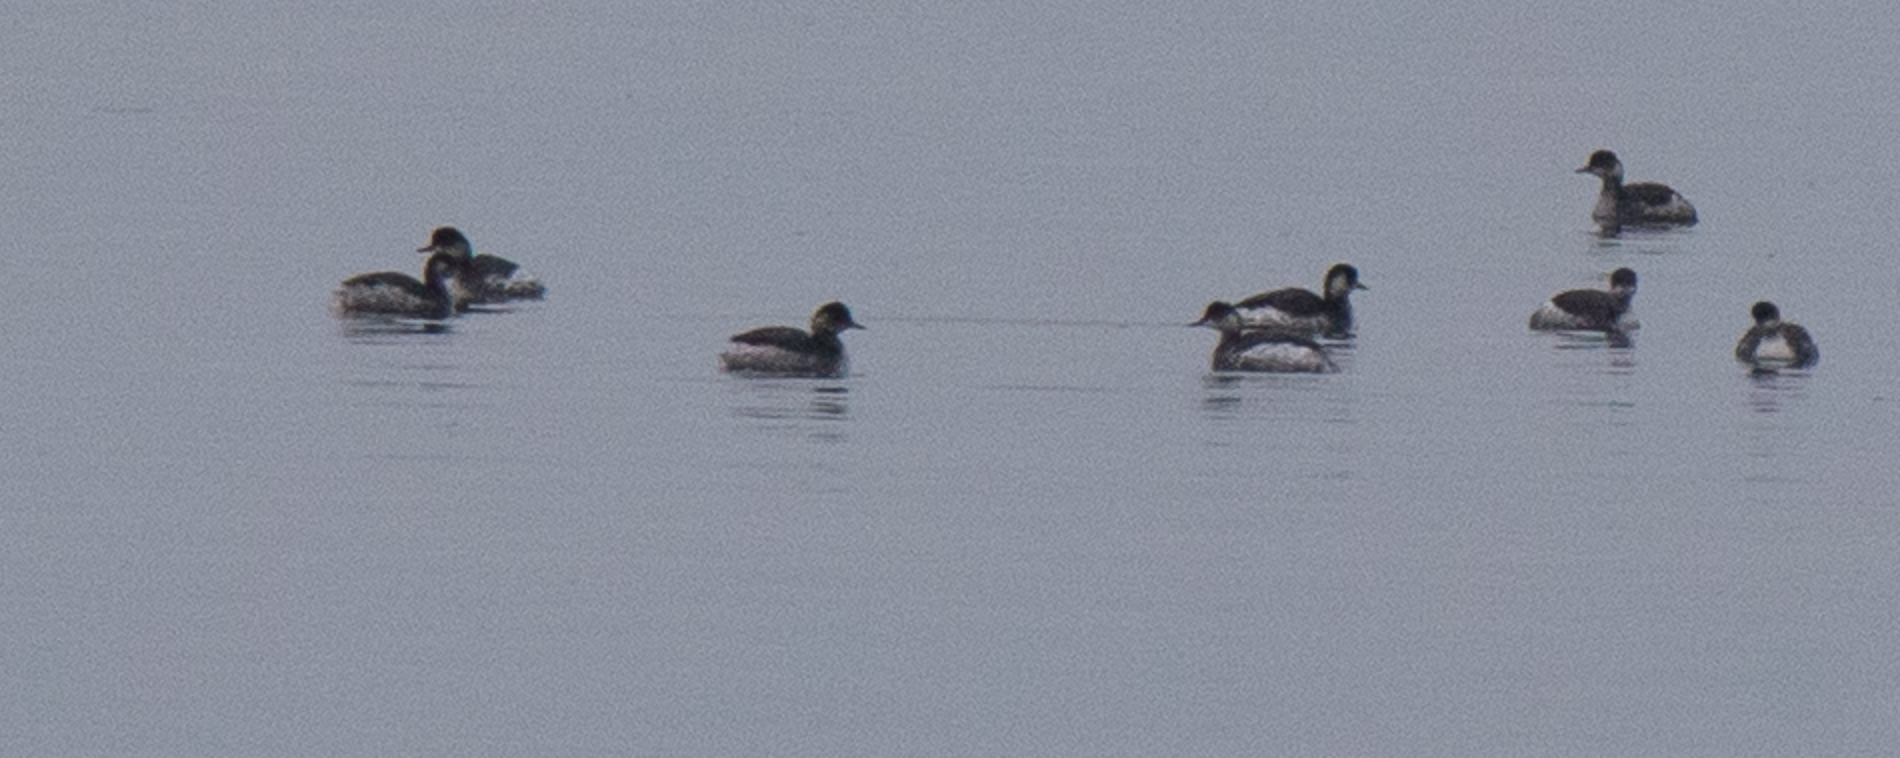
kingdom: Animalia
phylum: Chordata
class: Aves
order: Podicipediformes
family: Podicipedidae
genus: Podiceps
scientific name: Podiceps nigricollis
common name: Black-necked grebe
